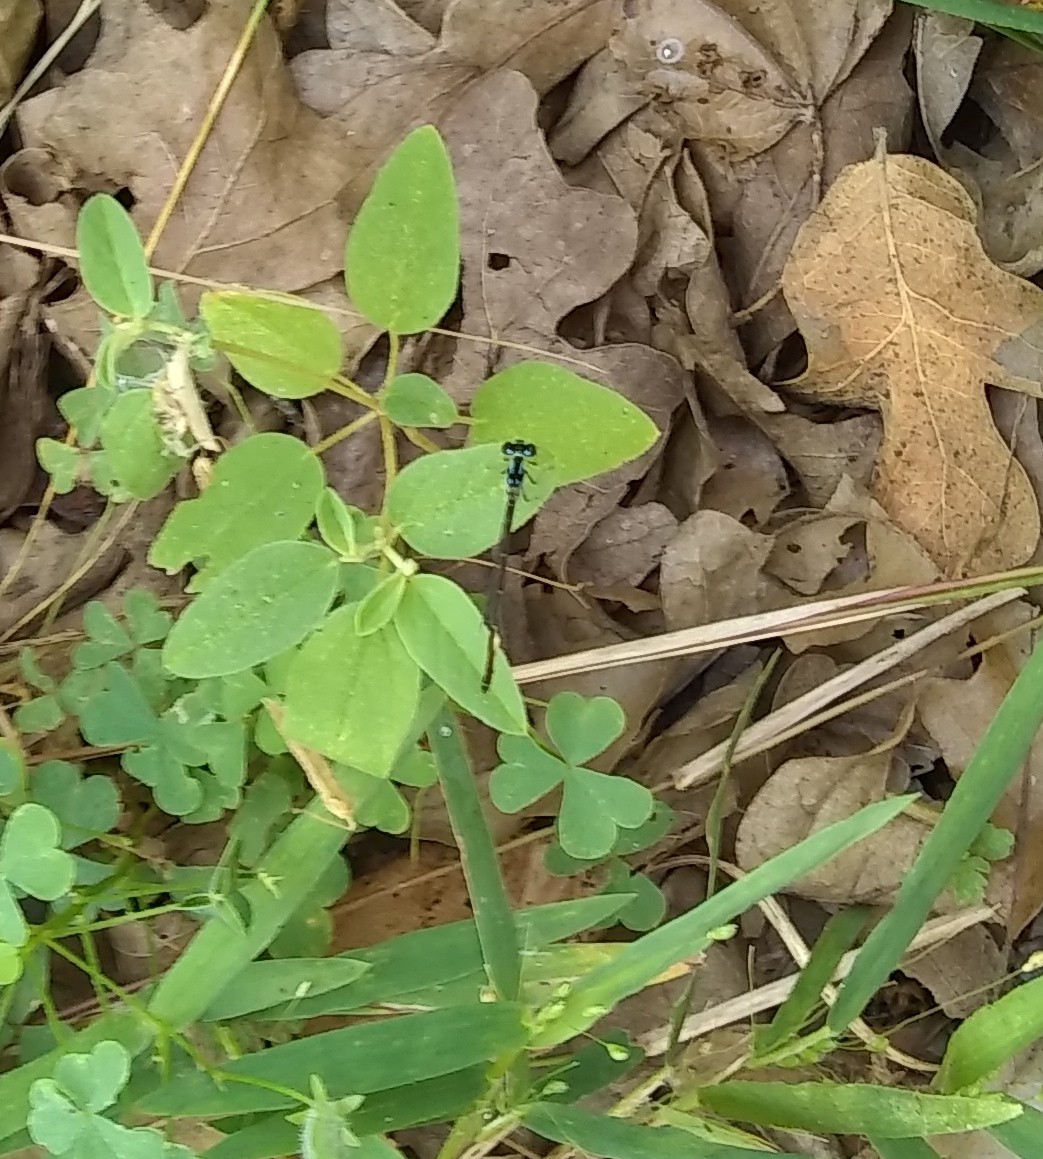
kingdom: Animalia
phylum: Arthropoda
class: Insecta
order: Odonata
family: Coenagrionidae
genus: Ischnura
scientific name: Ischnura posita
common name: Fragile forktail
